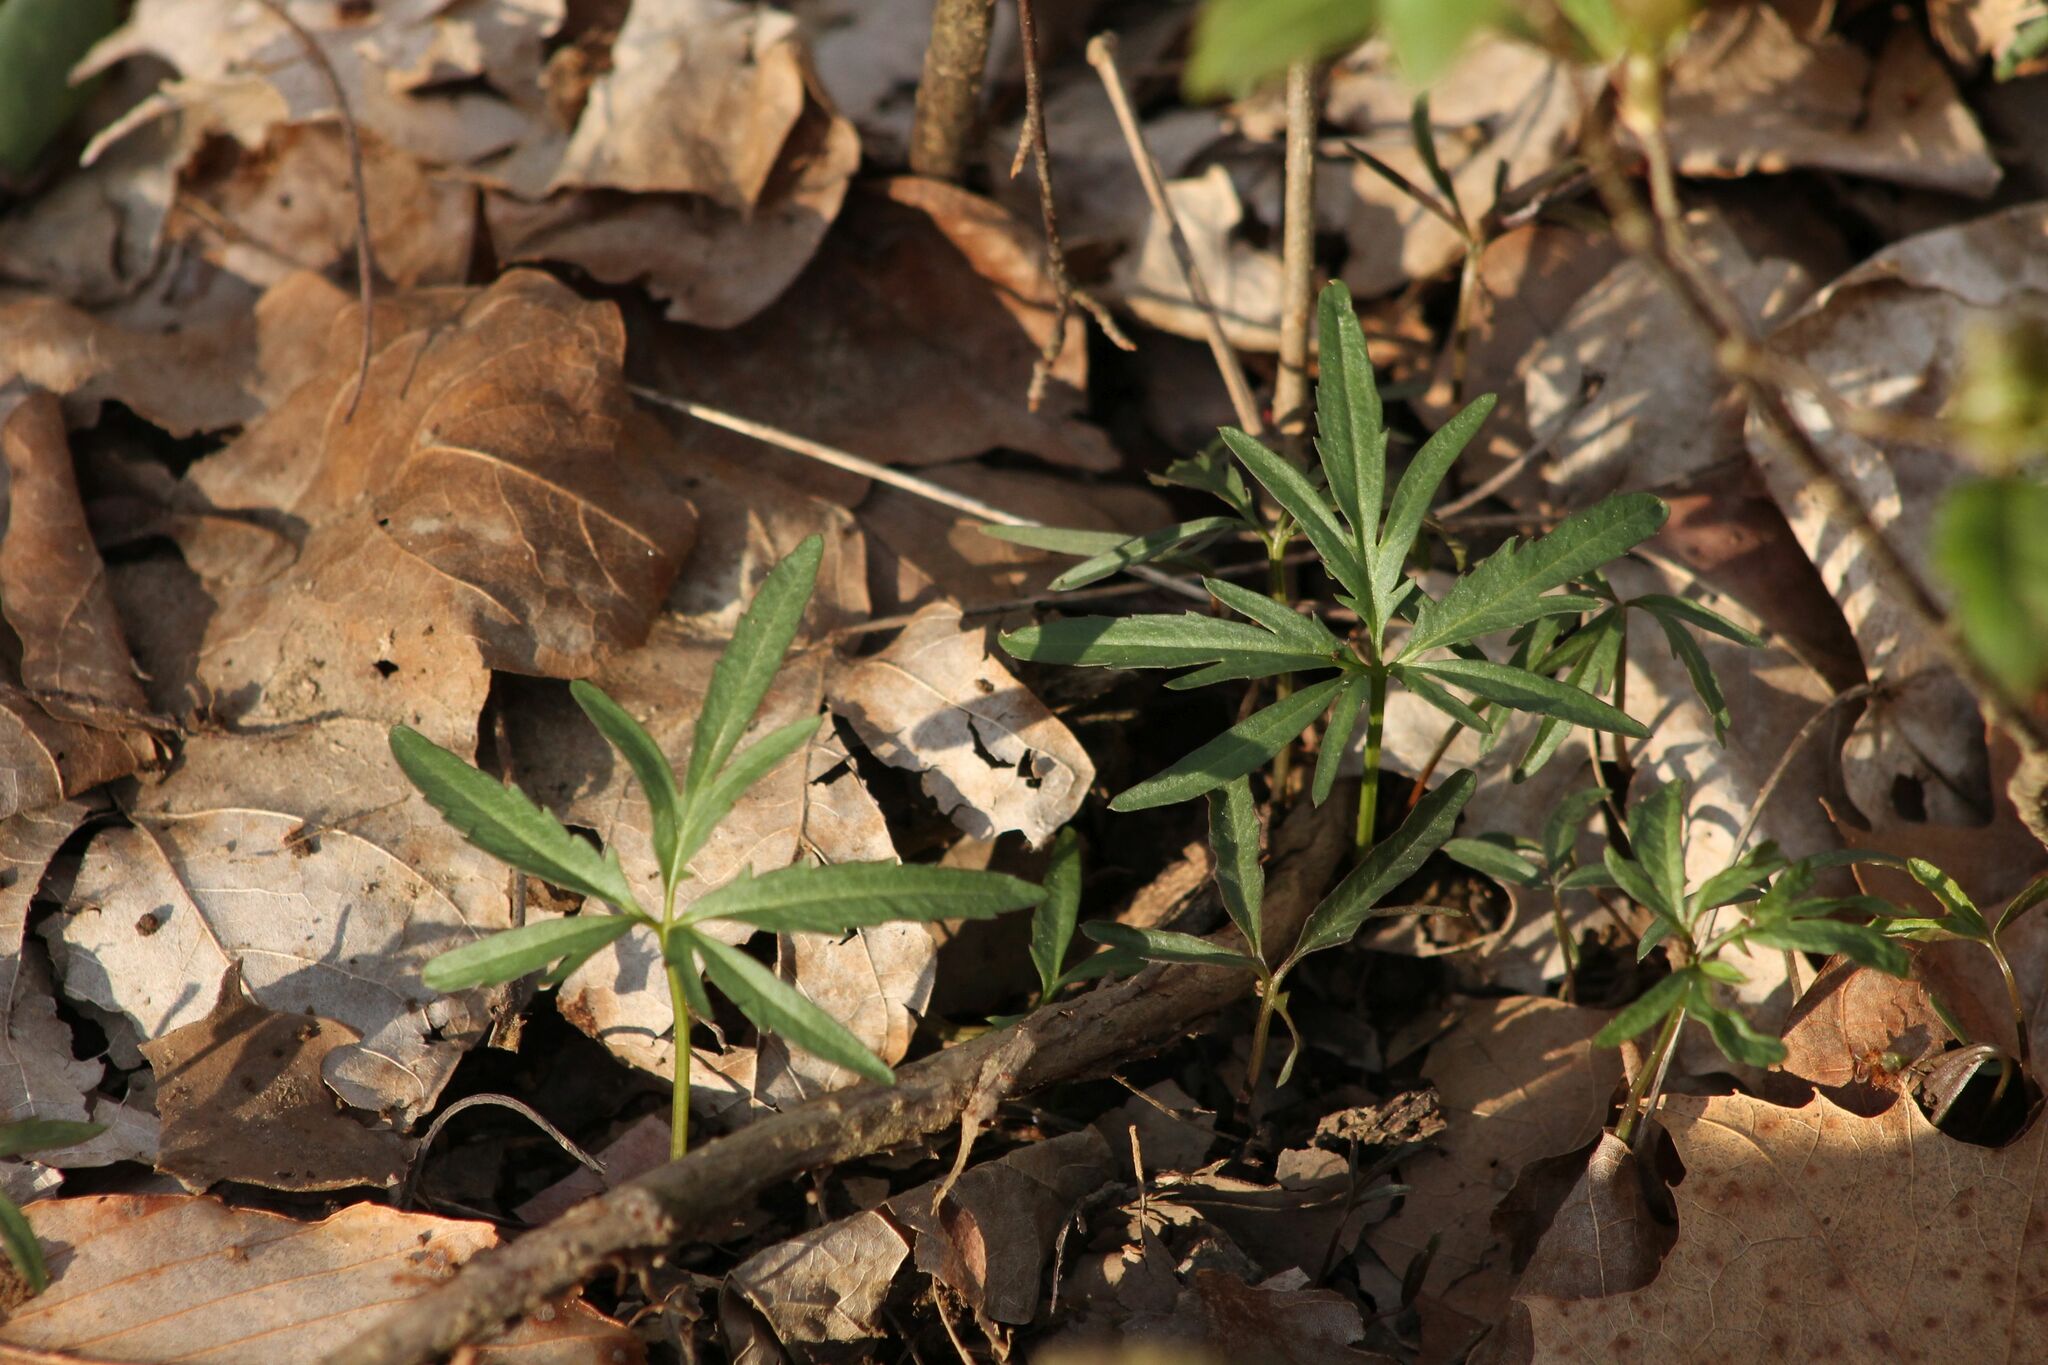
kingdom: Plantae
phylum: Tracheophyta
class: Magnoliopsida
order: Brassicales
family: Brassicaceae
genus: Cardamine
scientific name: Cardamine concatenata
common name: Cut-leaf toothcup
